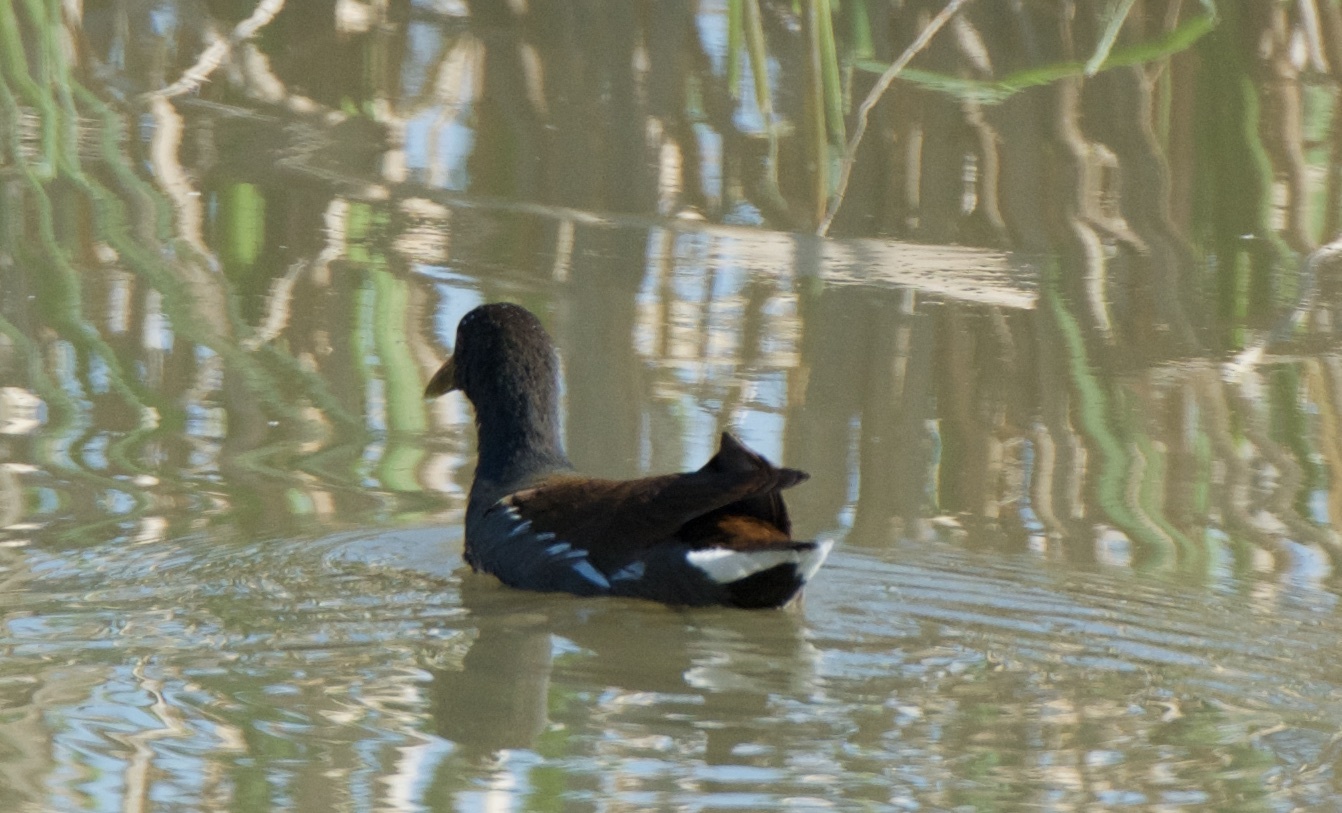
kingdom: Animalia
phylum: Chordata
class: Aves
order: Gruiformes
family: Rallidae
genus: Gallinula
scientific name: Gallinula chloropus
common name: Common moorhen
